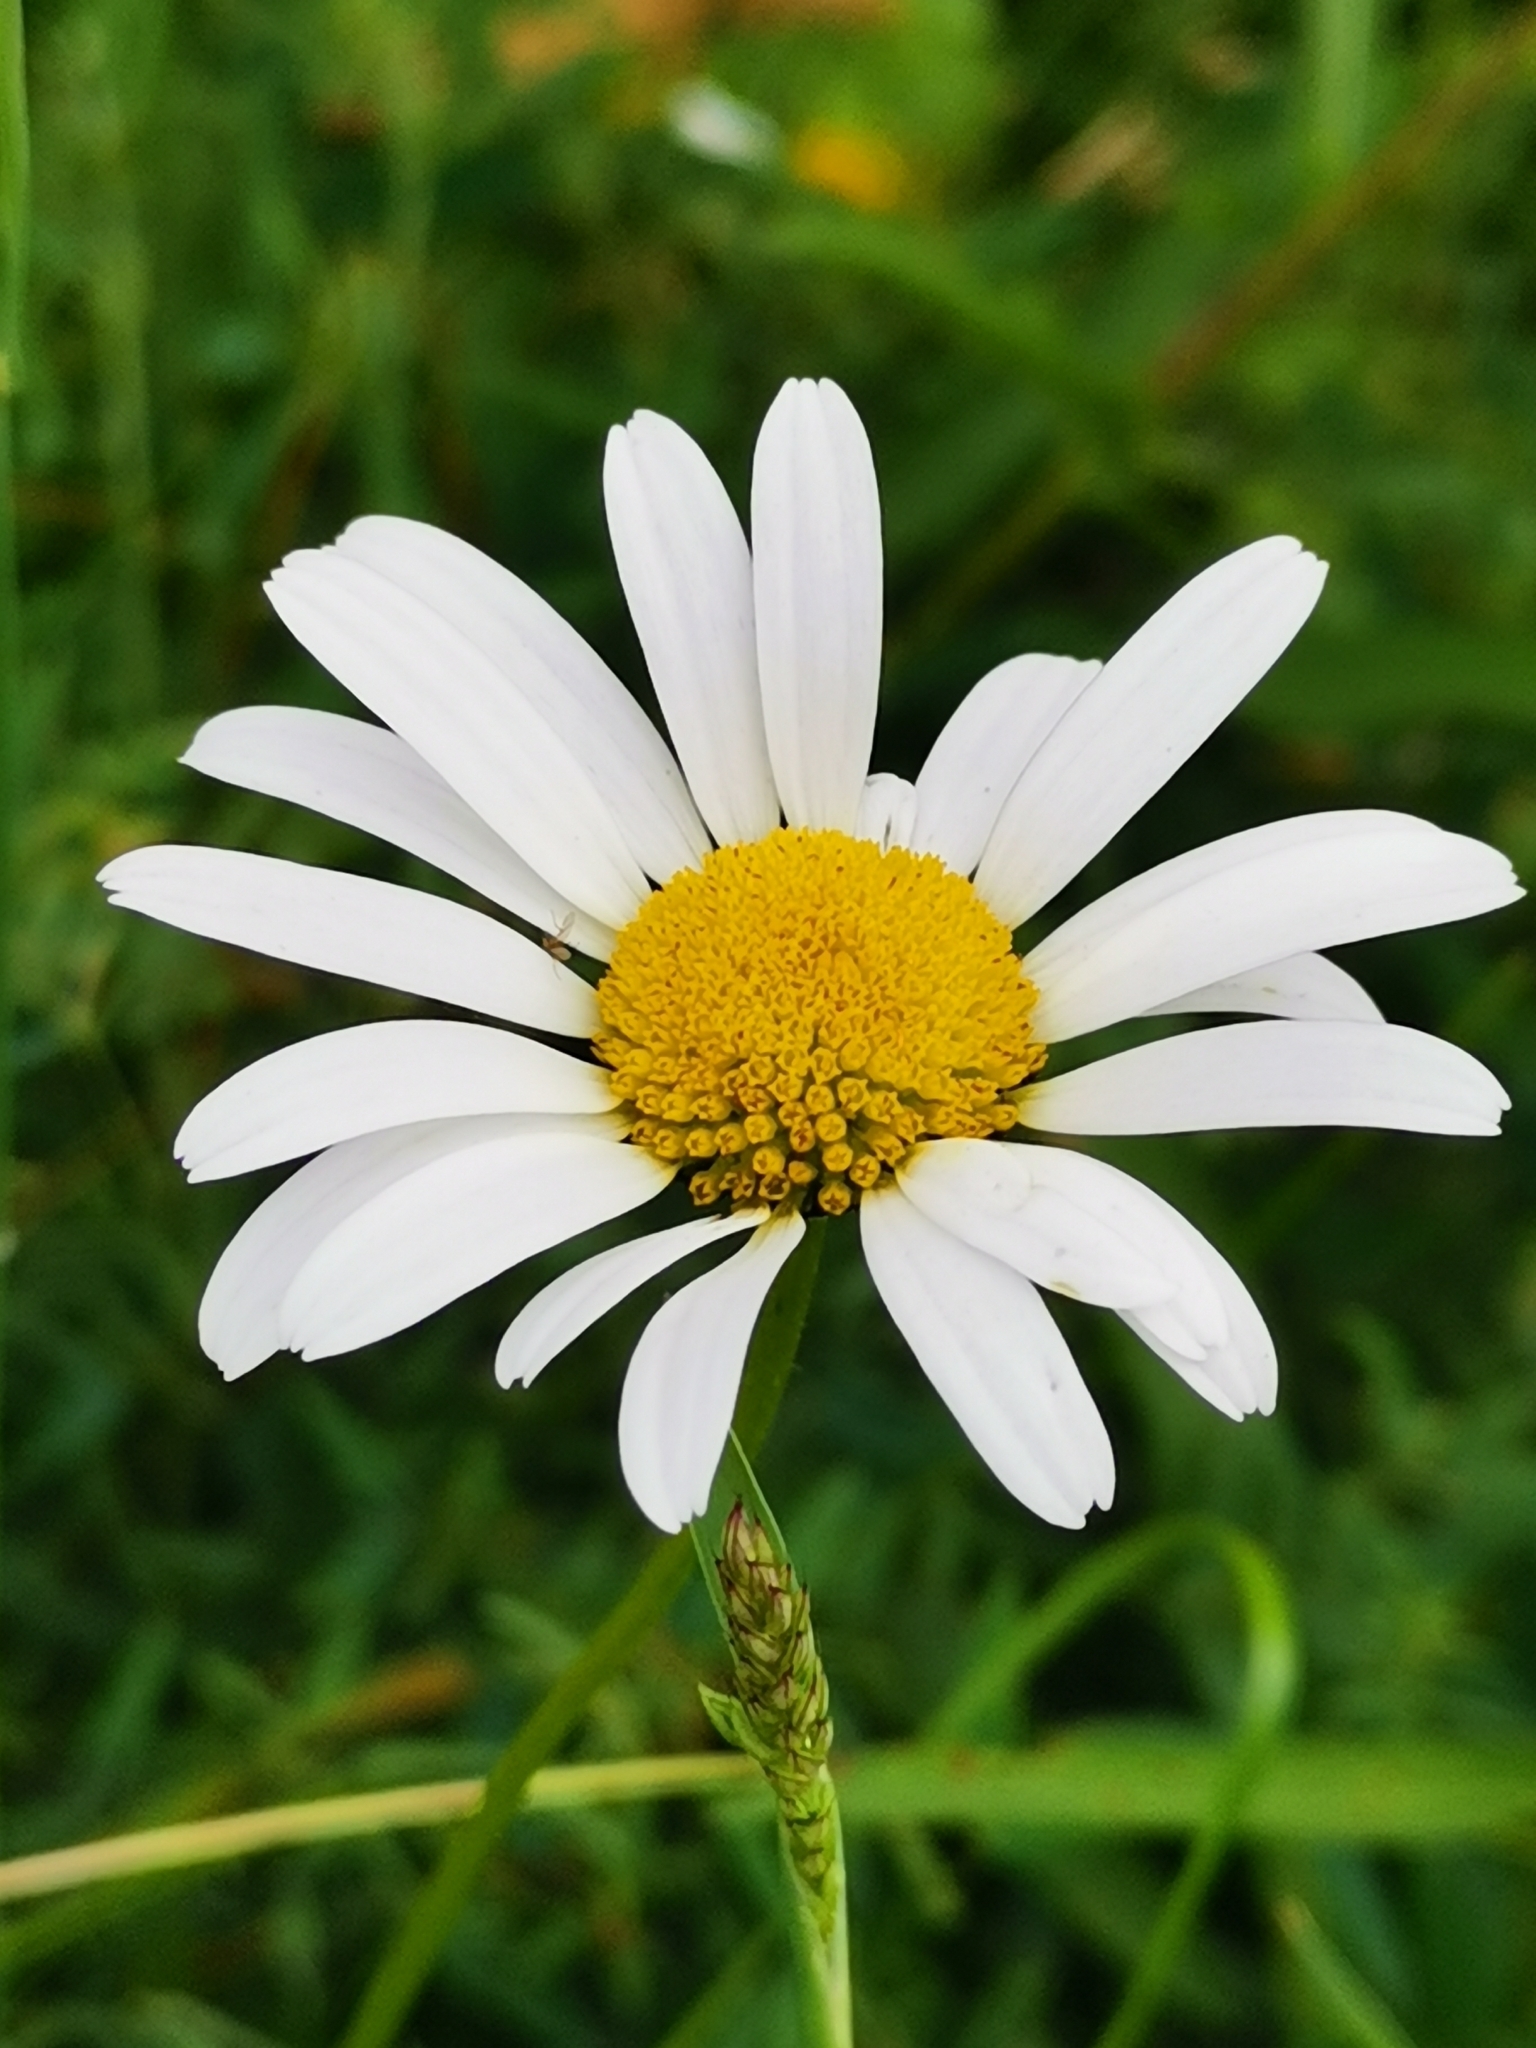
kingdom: Plantae
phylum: Tracheophyta
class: Magnoliopsida
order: Asterales
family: Asteraceae
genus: Leucanthemum
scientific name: Leucanthemum vulgare
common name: Oxeye daisy
